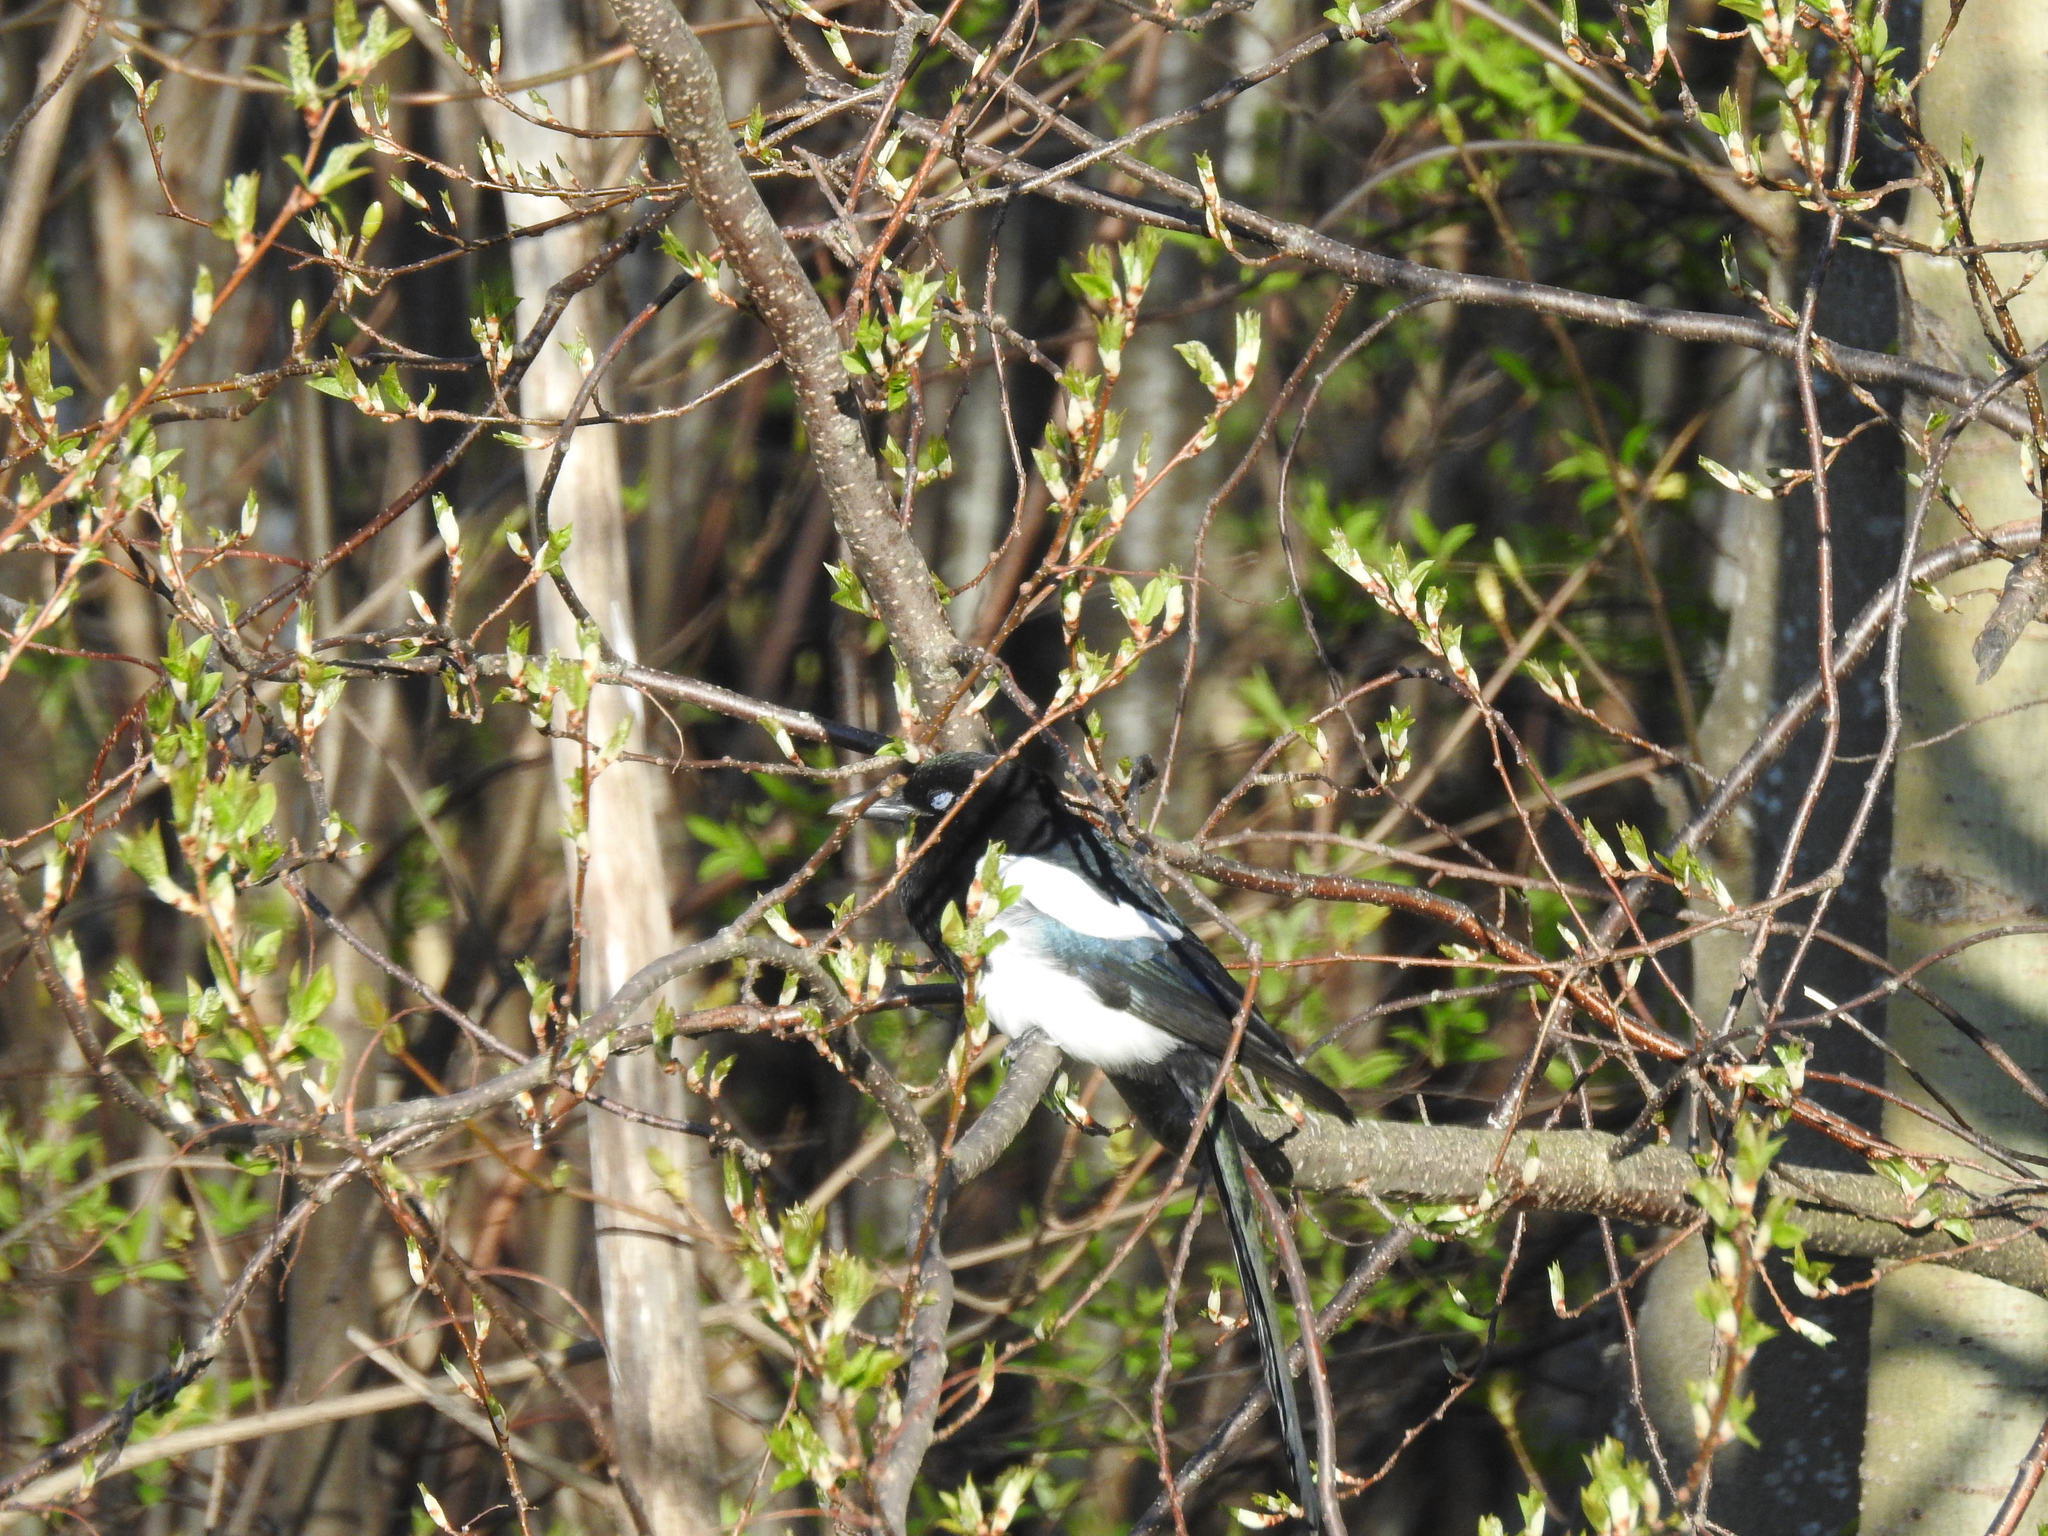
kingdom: Animalia
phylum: Chordata
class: Aves
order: Passeriformes
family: Corvidae
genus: Pica
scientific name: Pica pica
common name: Eurasian magpie
